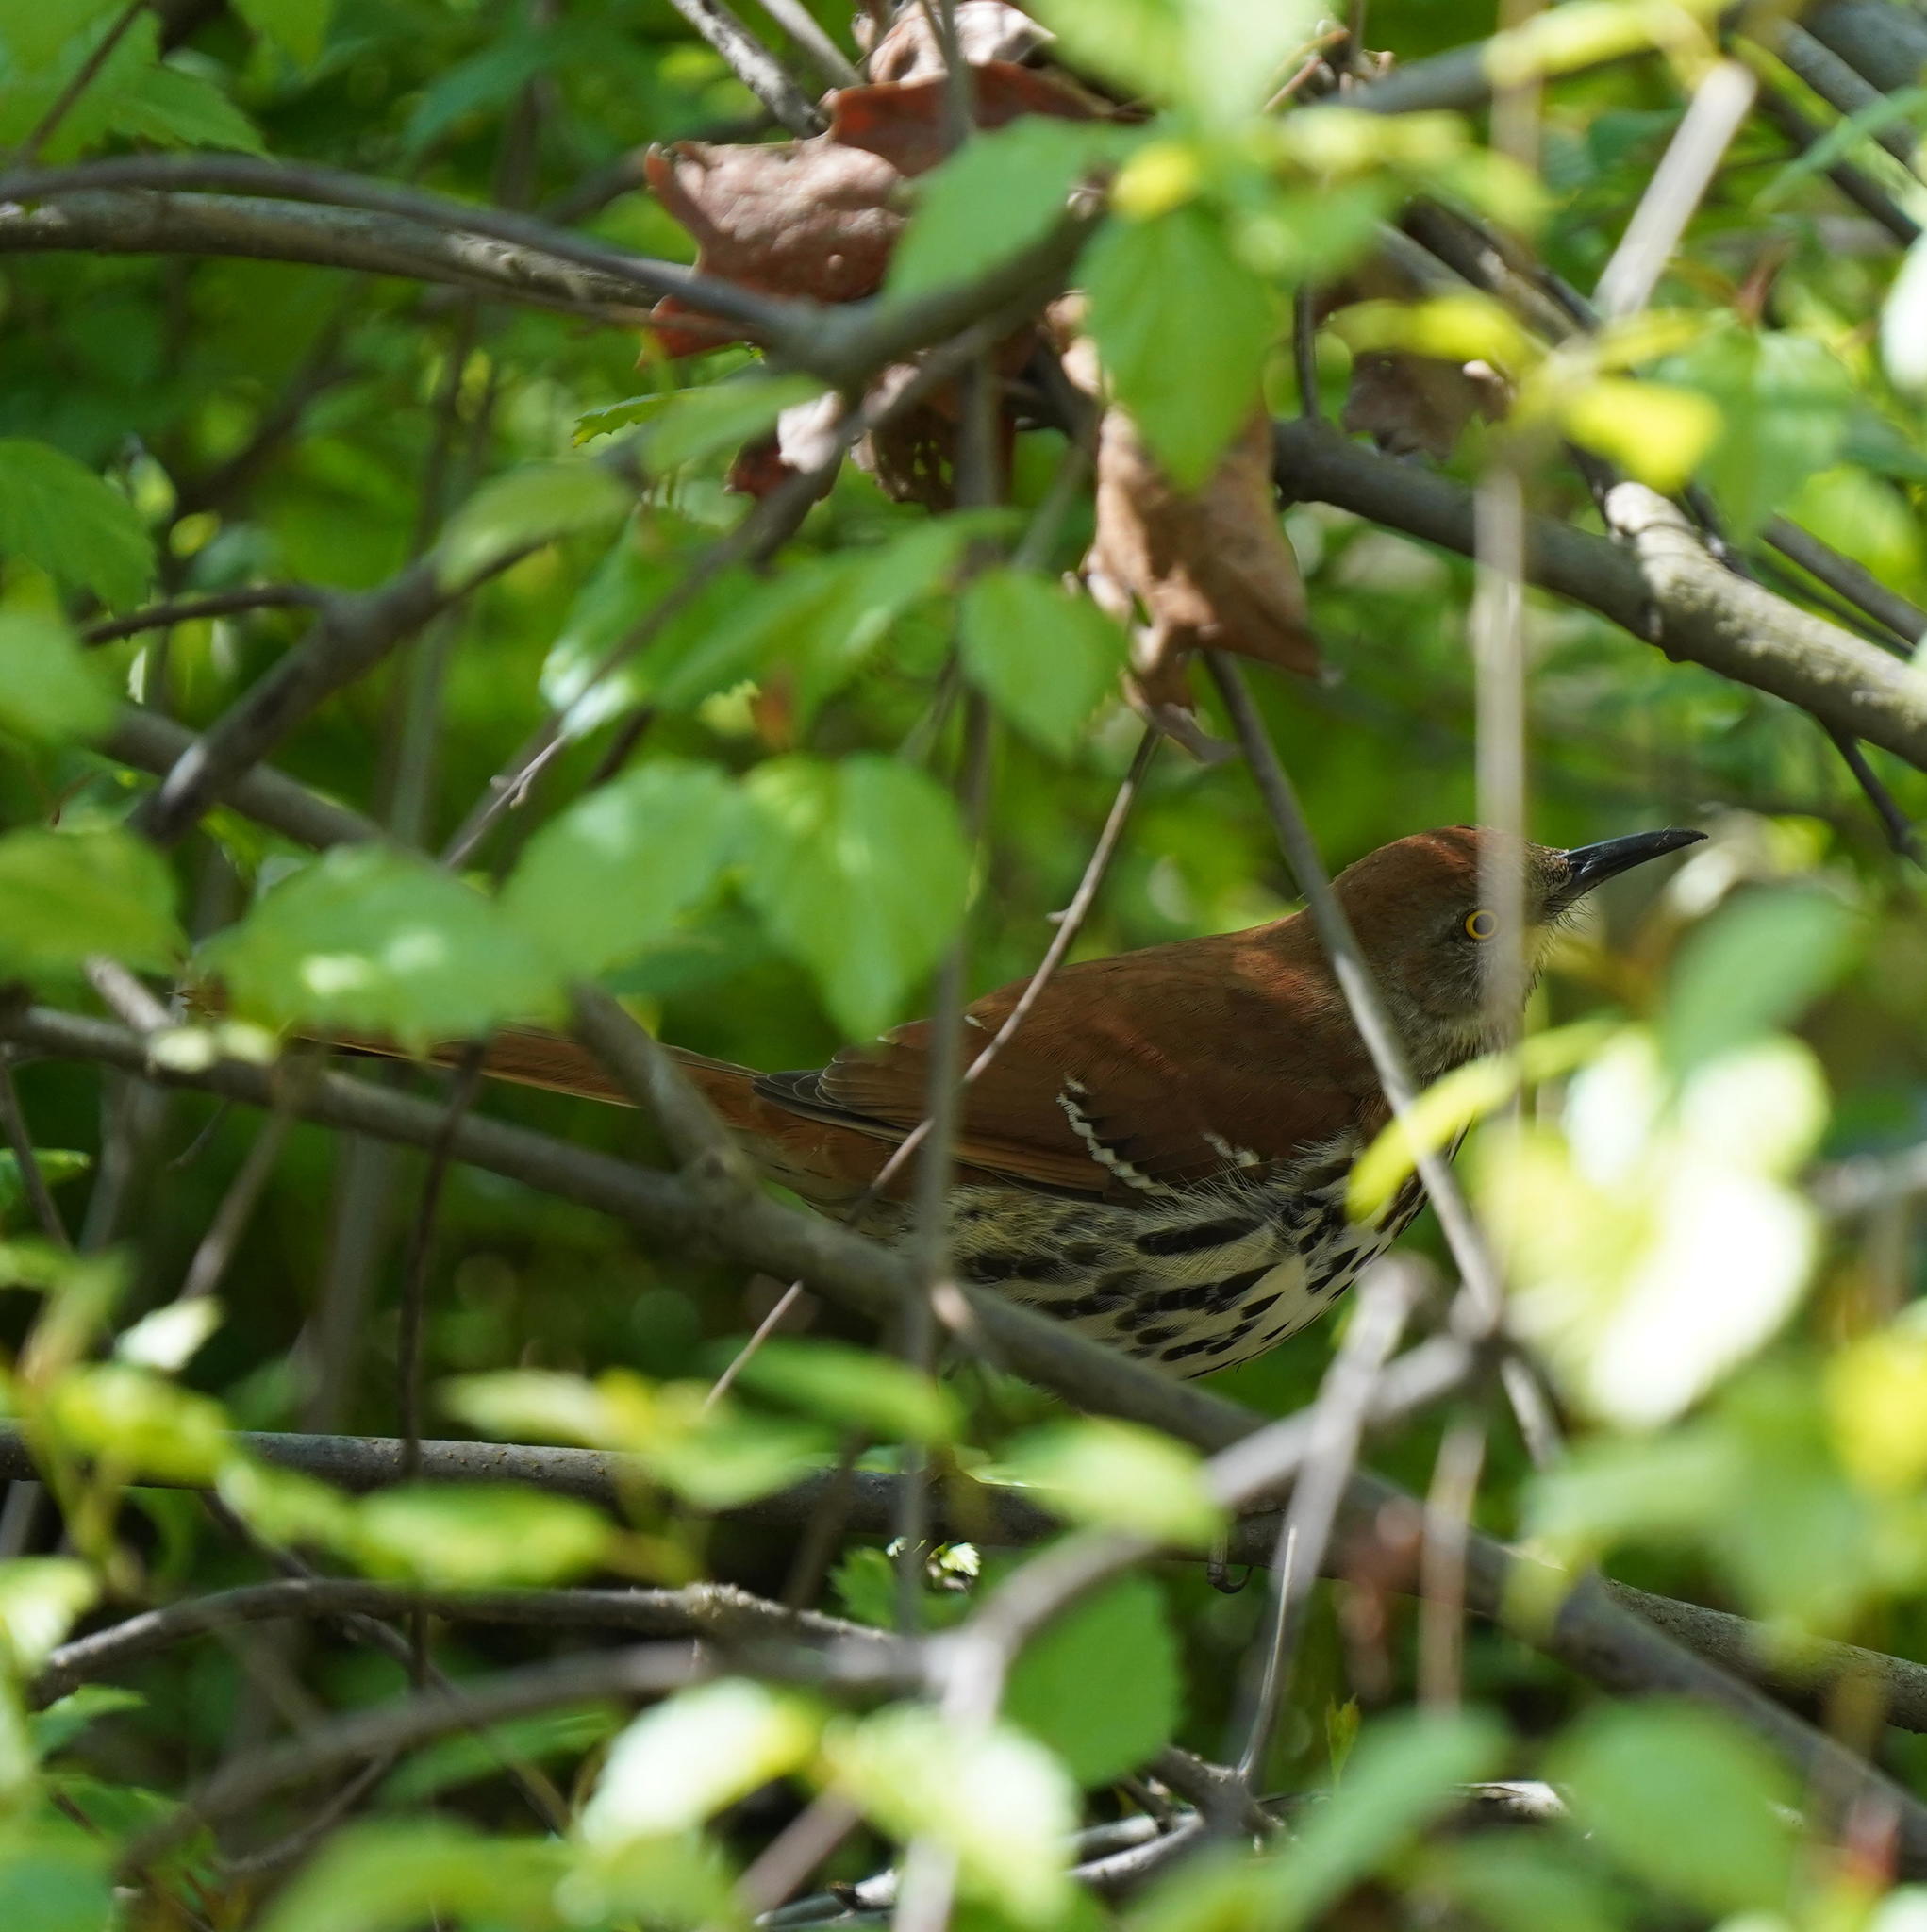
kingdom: Animalia
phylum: Chordata
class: Aves
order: Passeriformes
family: Mimidae
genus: Toxostoma
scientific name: Toxostoma rufum
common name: Brown thrasher
